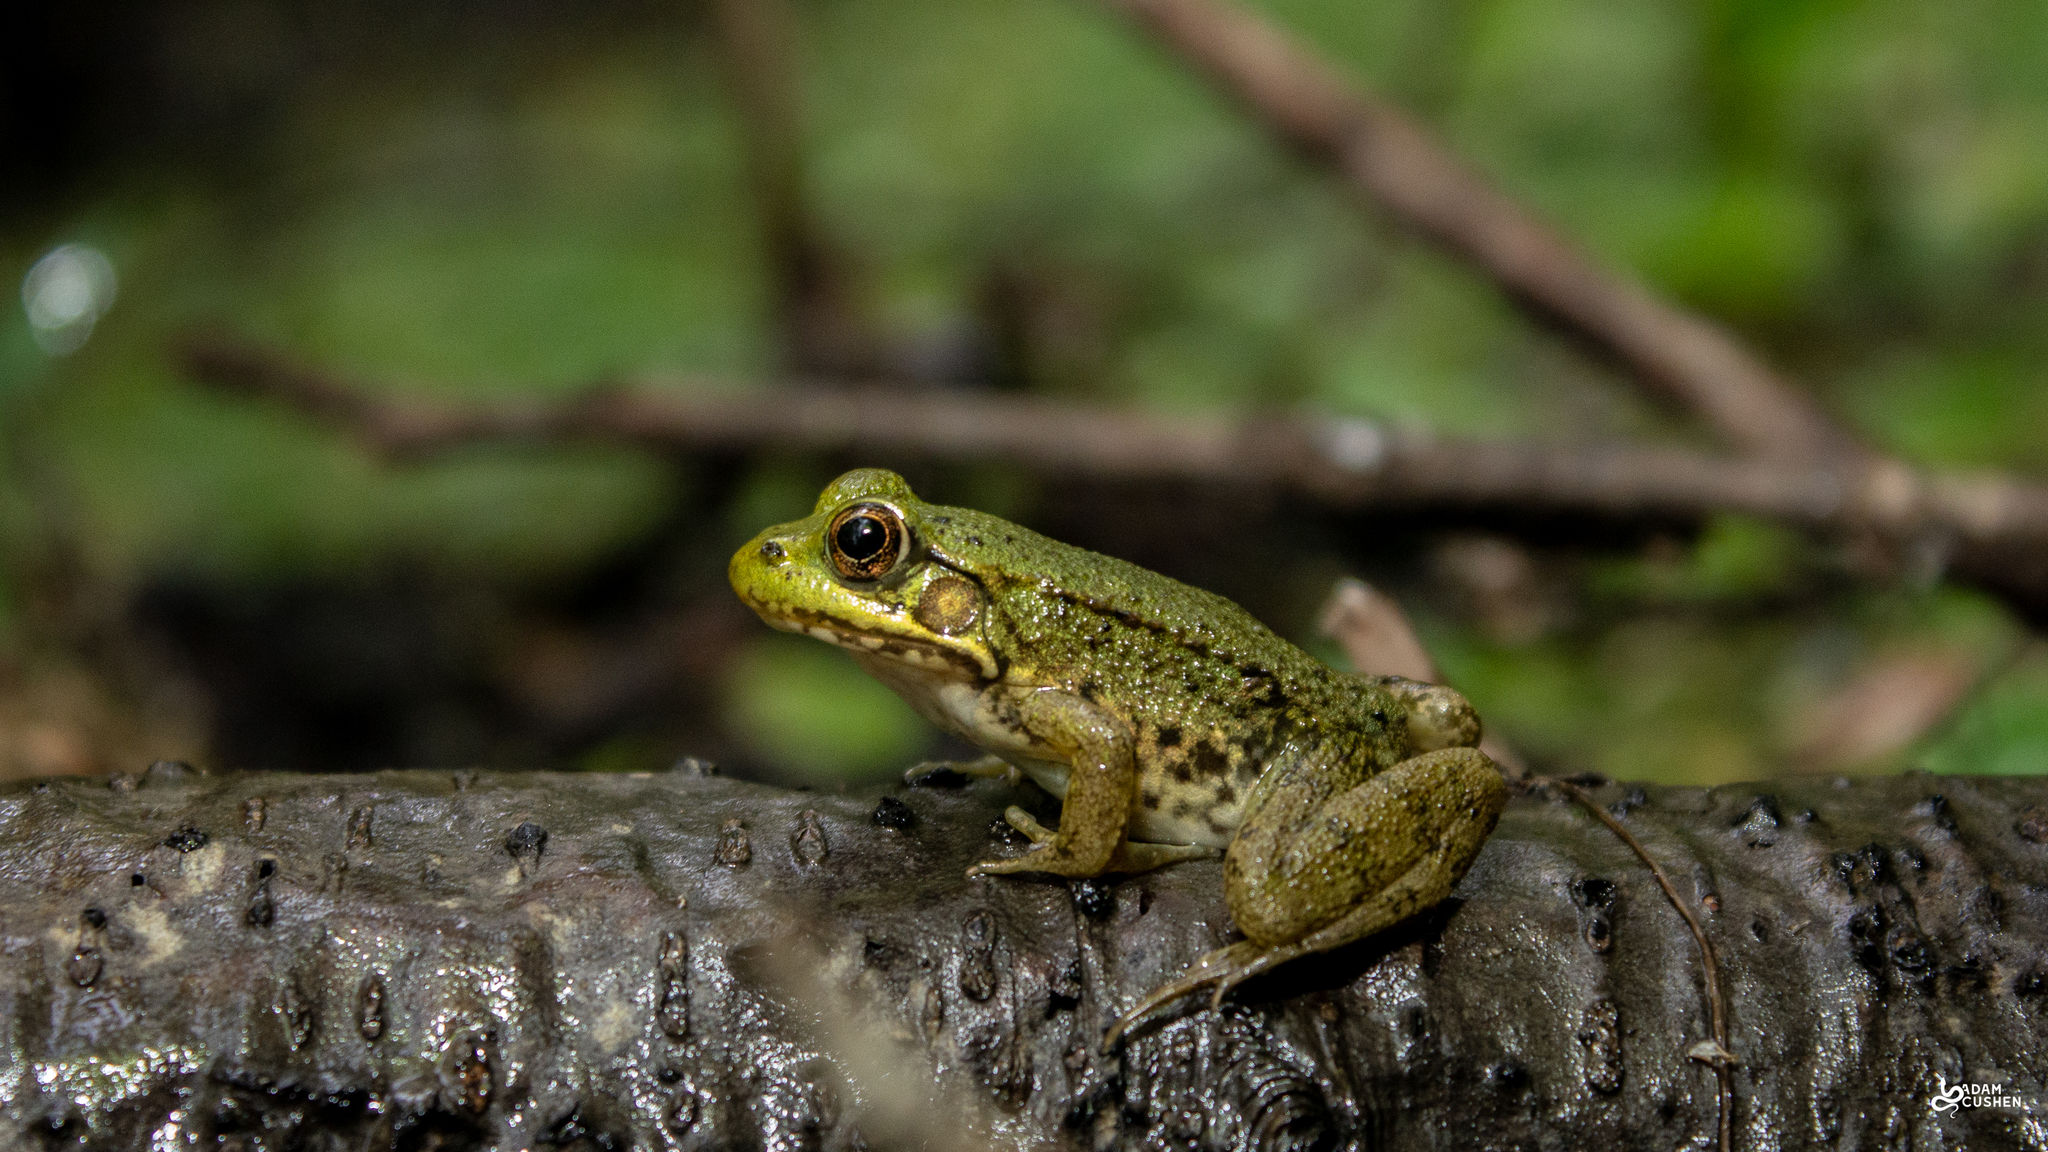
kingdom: Animalia
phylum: Chordata
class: Amphibia
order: Anura
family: Ranidae
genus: Lithobates
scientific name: Lithobates clamitans
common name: Green frog
